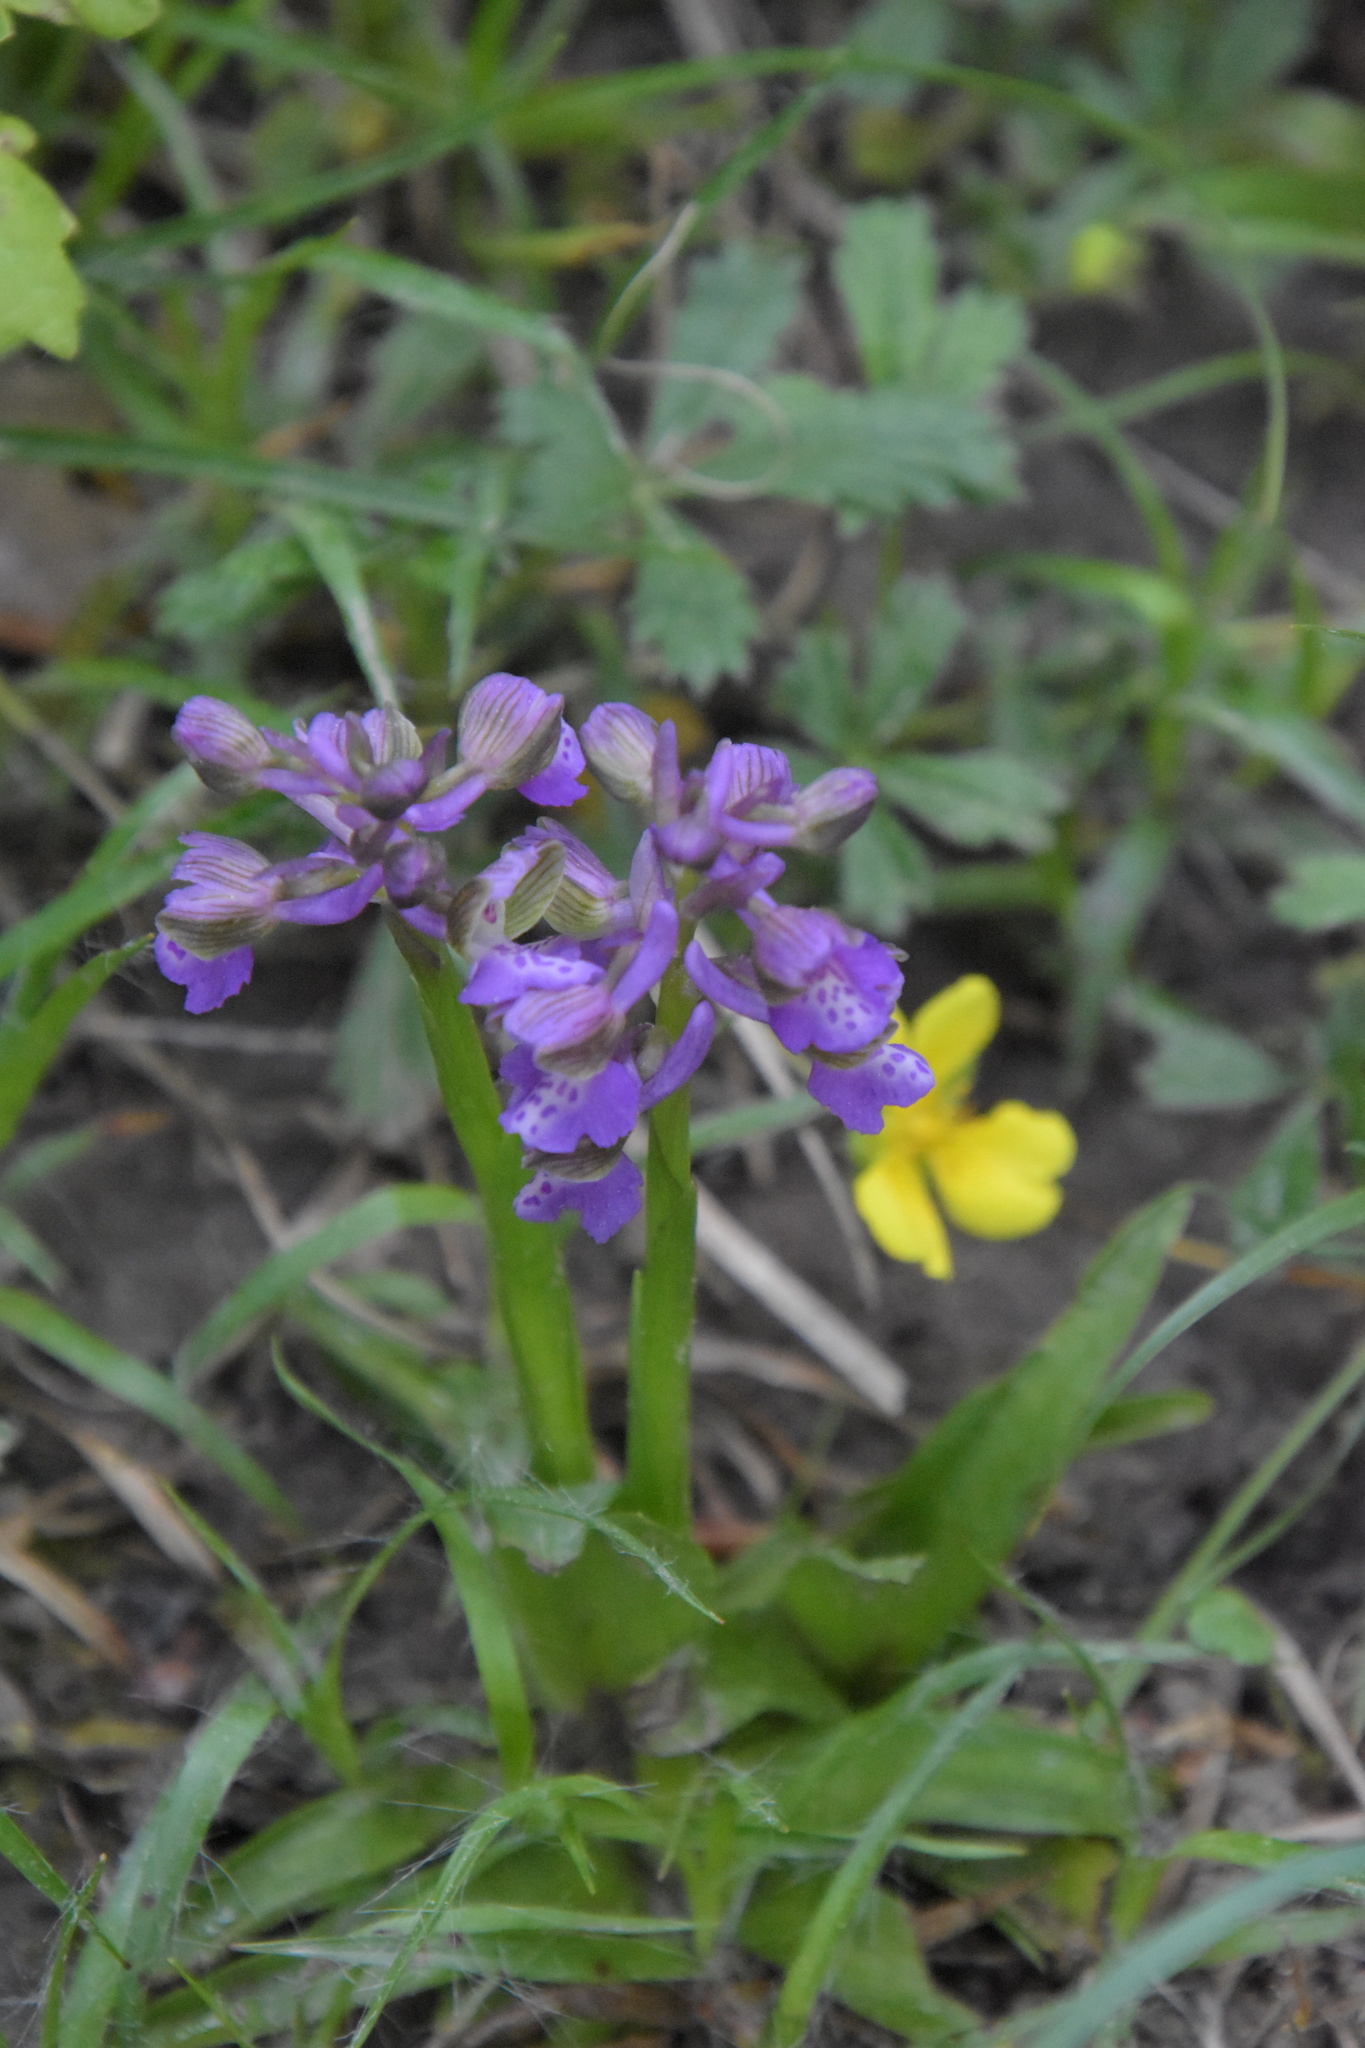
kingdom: Plantae
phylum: Tracheophyta
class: Liliopsida
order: Asparagales
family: Orchidaceae
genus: Anacamptis
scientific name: Anacamptis morio
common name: Green-winged orchid
